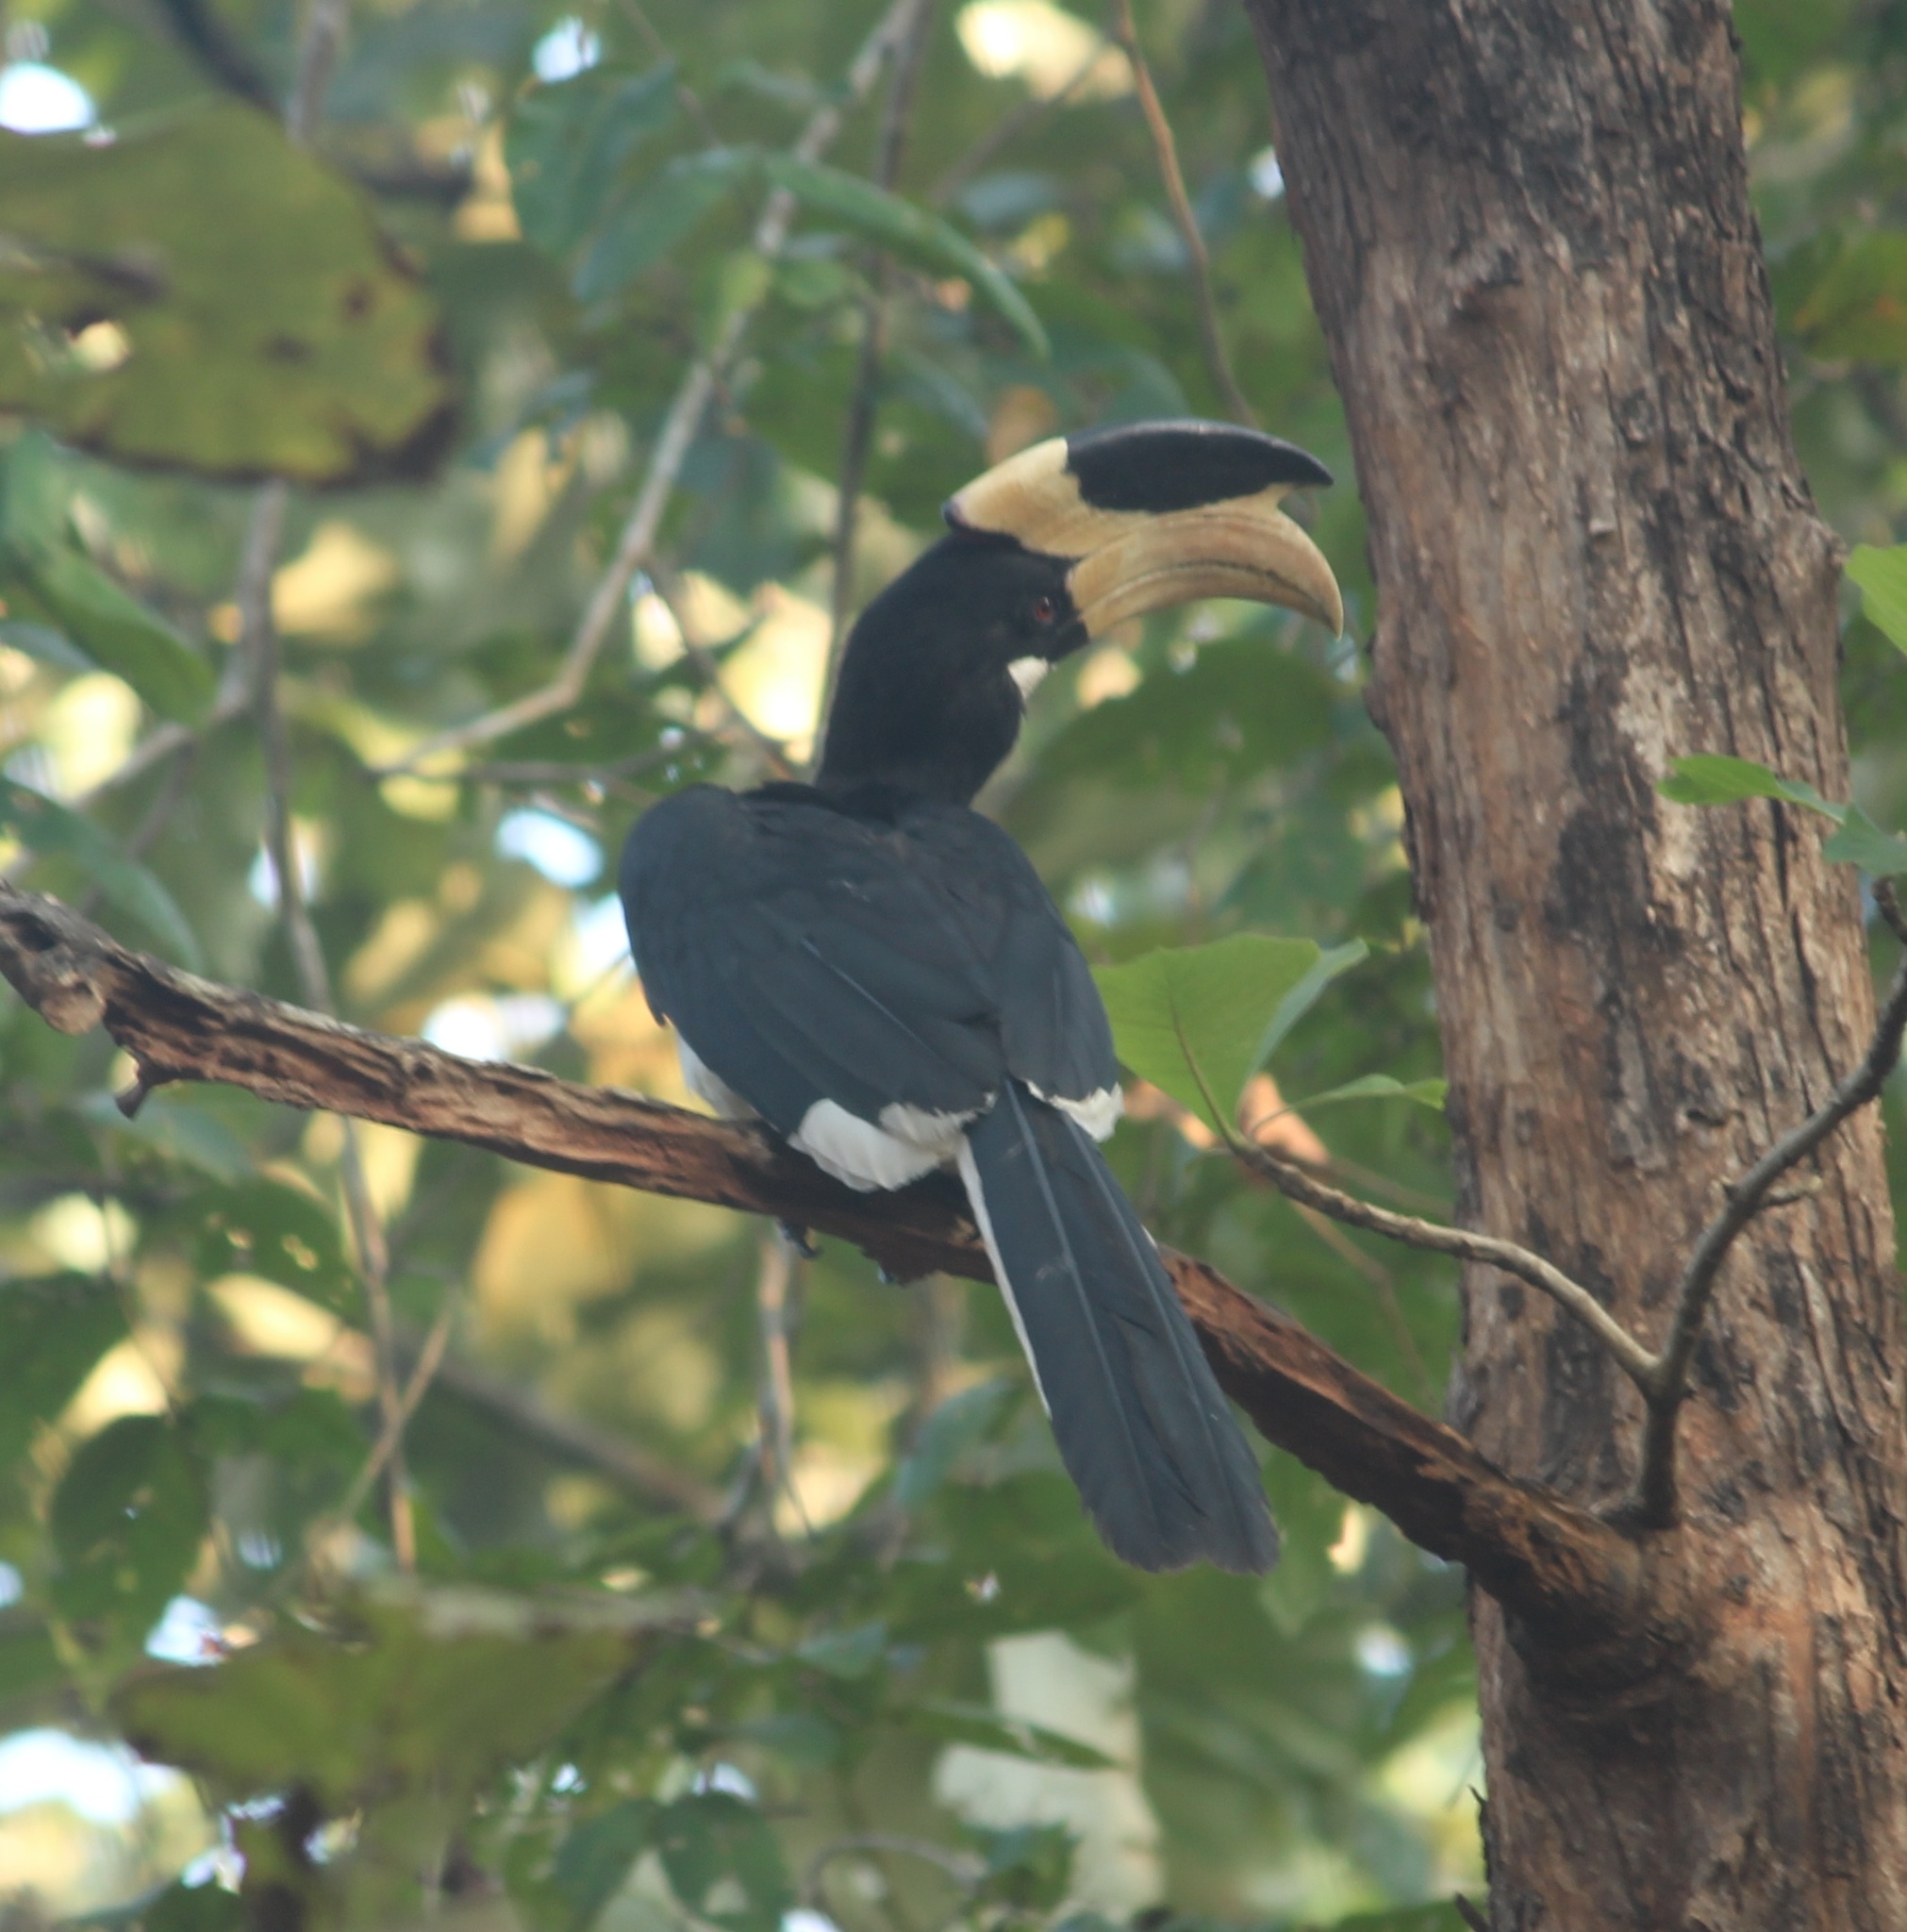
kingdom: Animalia
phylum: Chordata
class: Aves
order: Bucerotiformes
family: Bucerotidae
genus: Anthracoceros
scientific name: Anthracoceros coronatus
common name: Malabar pied hornbill
